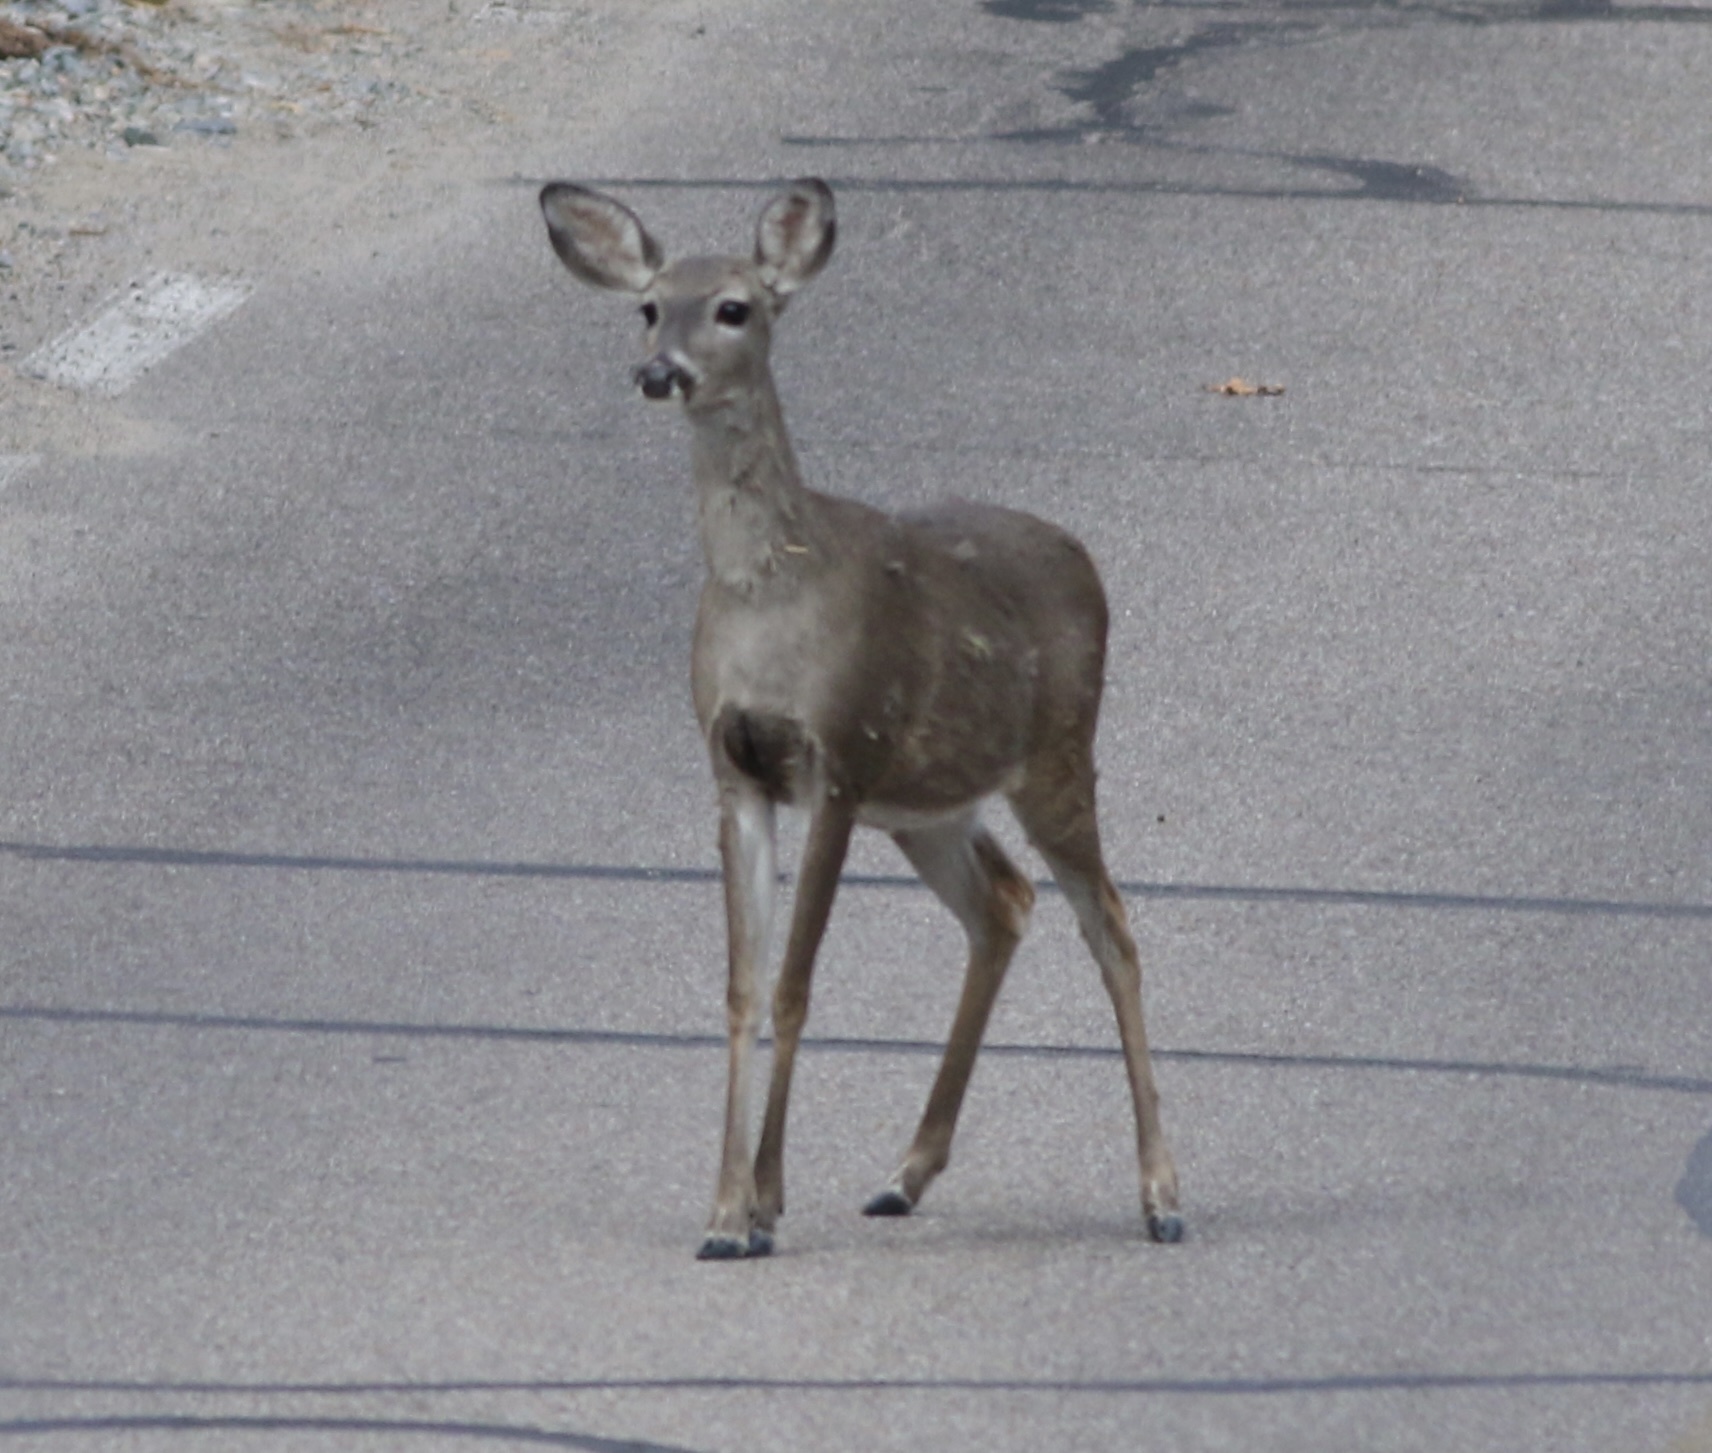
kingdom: Animalia
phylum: Chordata
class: Mammalia
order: Artiodactyla
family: Cervidae
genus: Odocoileus
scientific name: Odocoileus virginianus
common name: White-tailed deer
